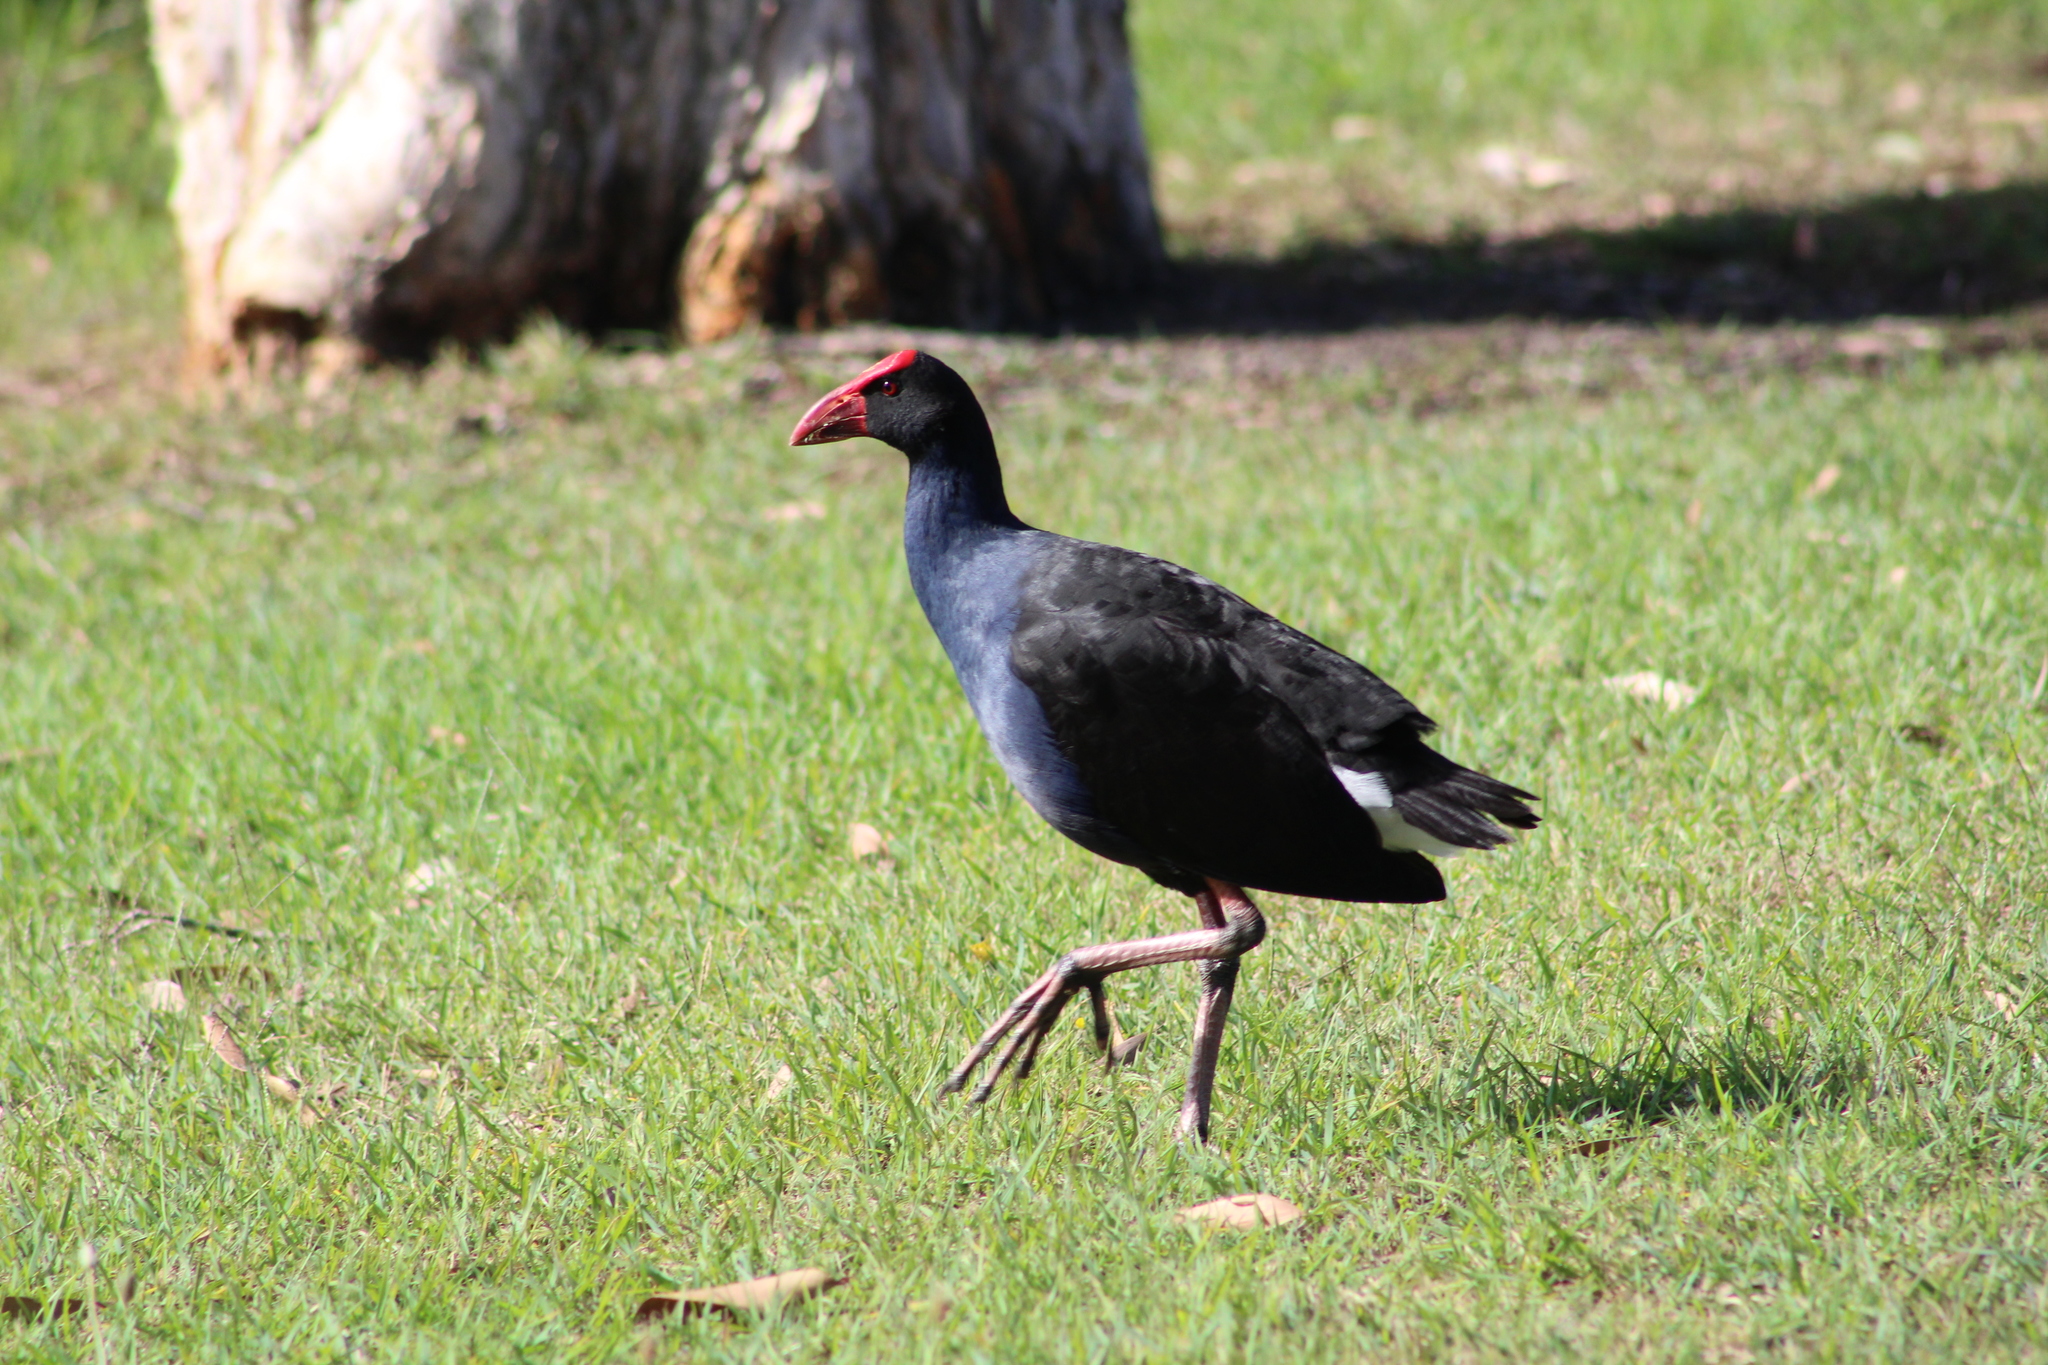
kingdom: Animalia
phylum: Chordata
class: Aves
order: Gruiformes
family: Rallidae
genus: Porphyrio
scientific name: Porphyrio melanotus
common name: Australasian swamphen
